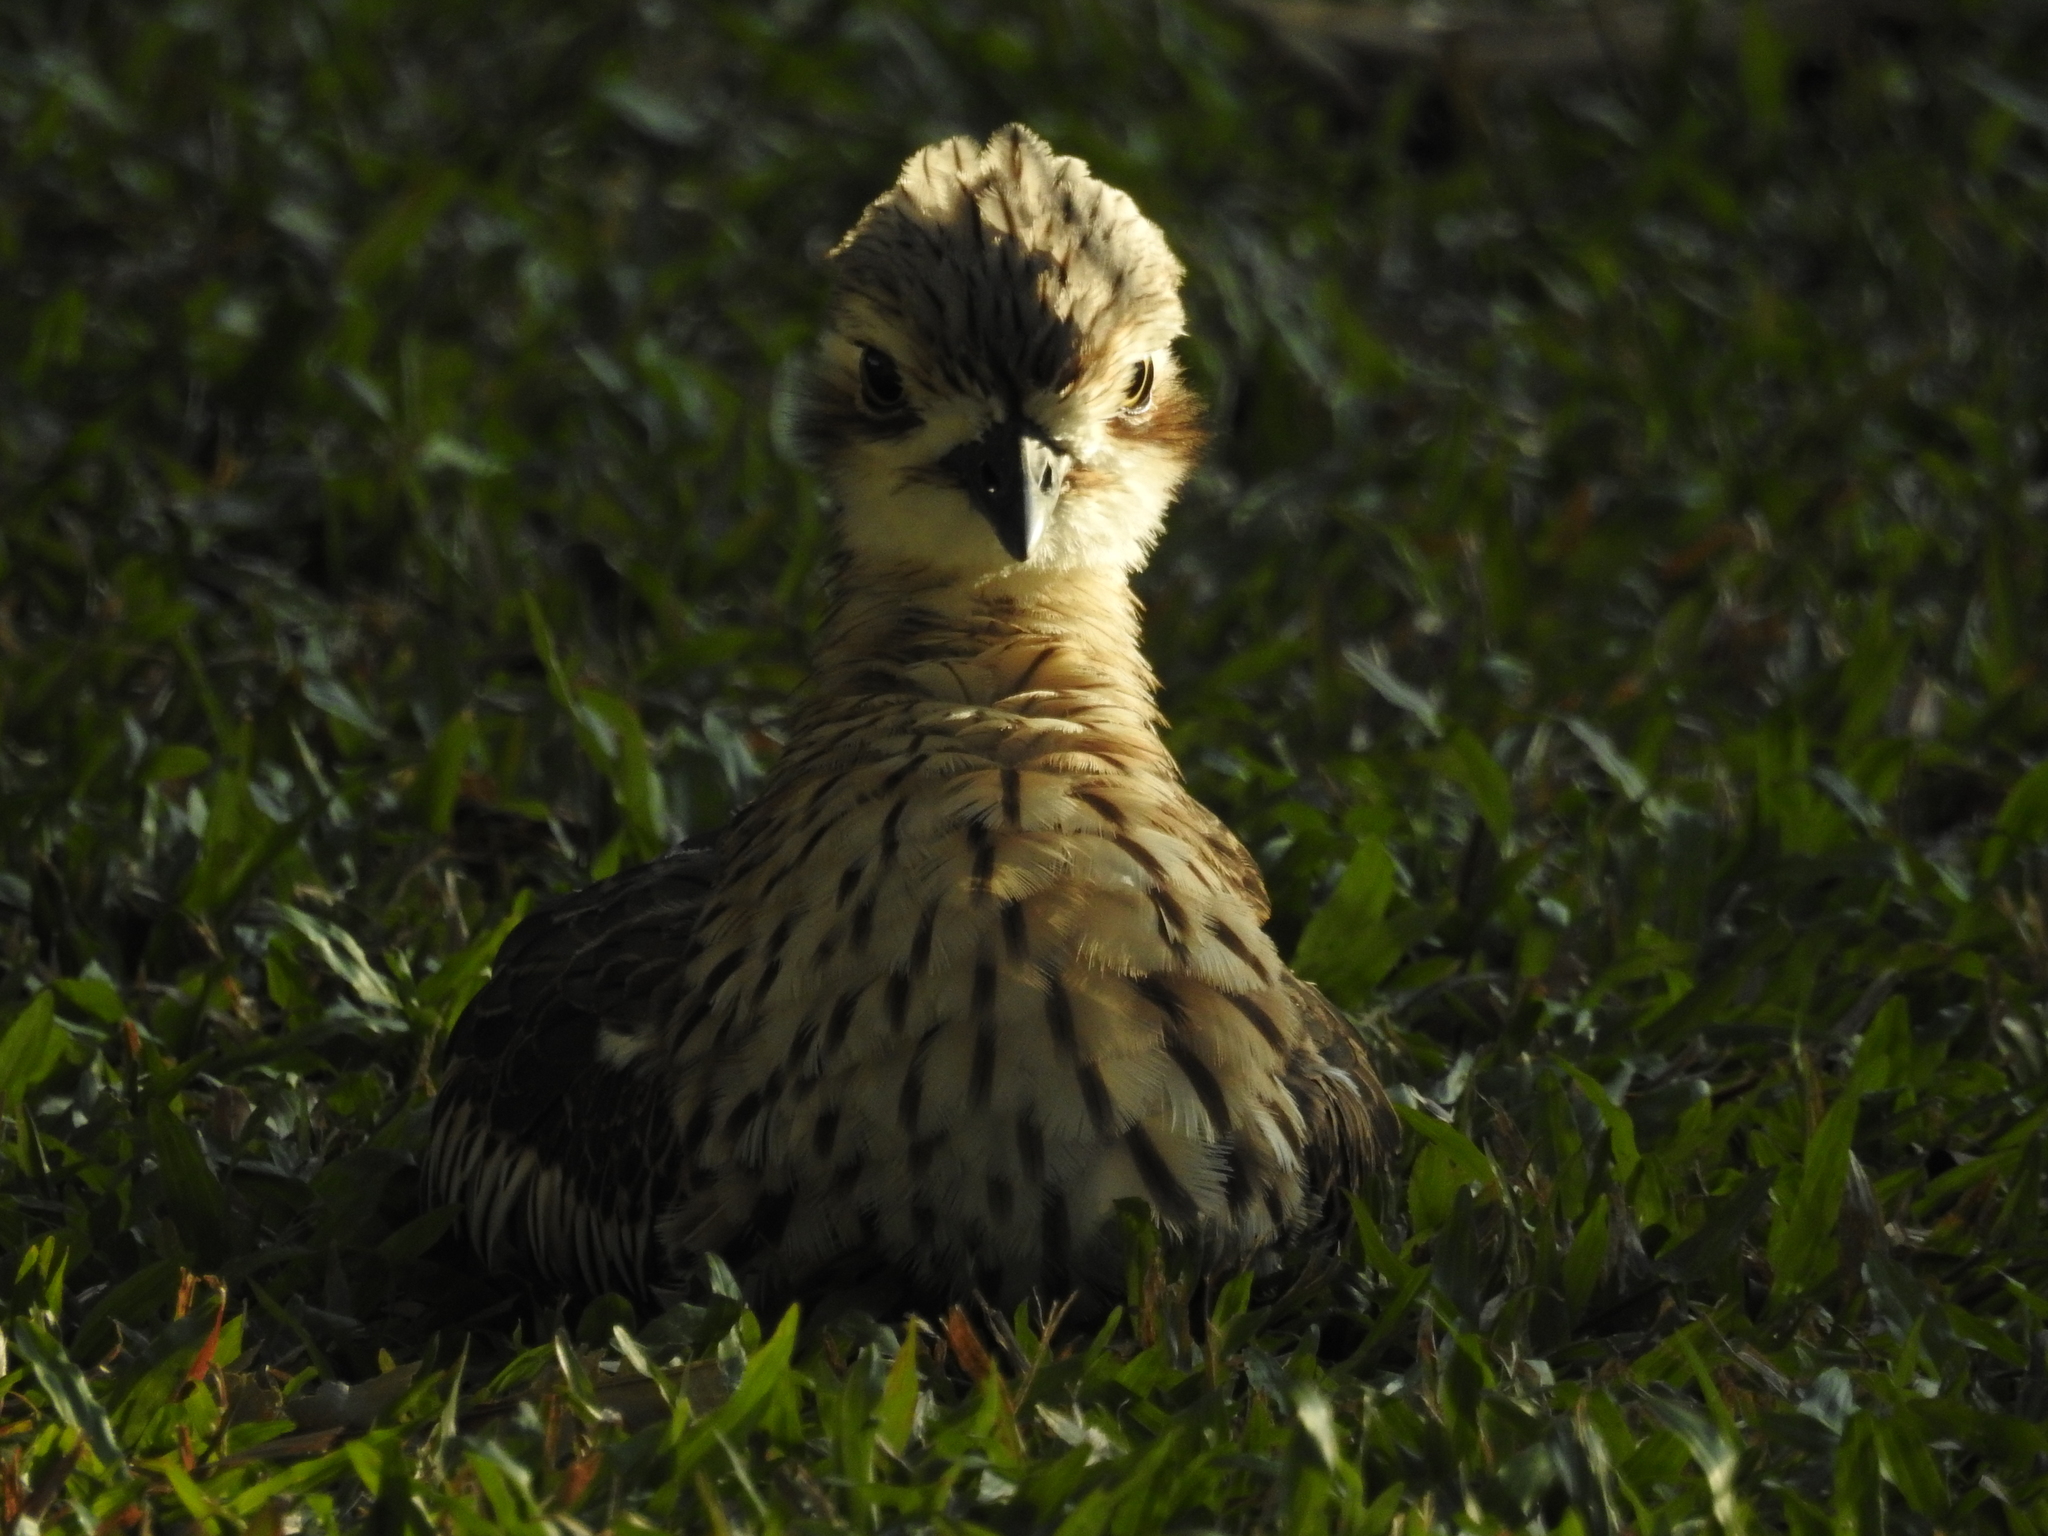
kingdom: Animalia
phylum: Chordata
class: Aves
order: Charadriiformes
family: Burhinidae
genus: Burhinus
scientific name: Burhinus grallarius
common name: Bush stone-curlew
